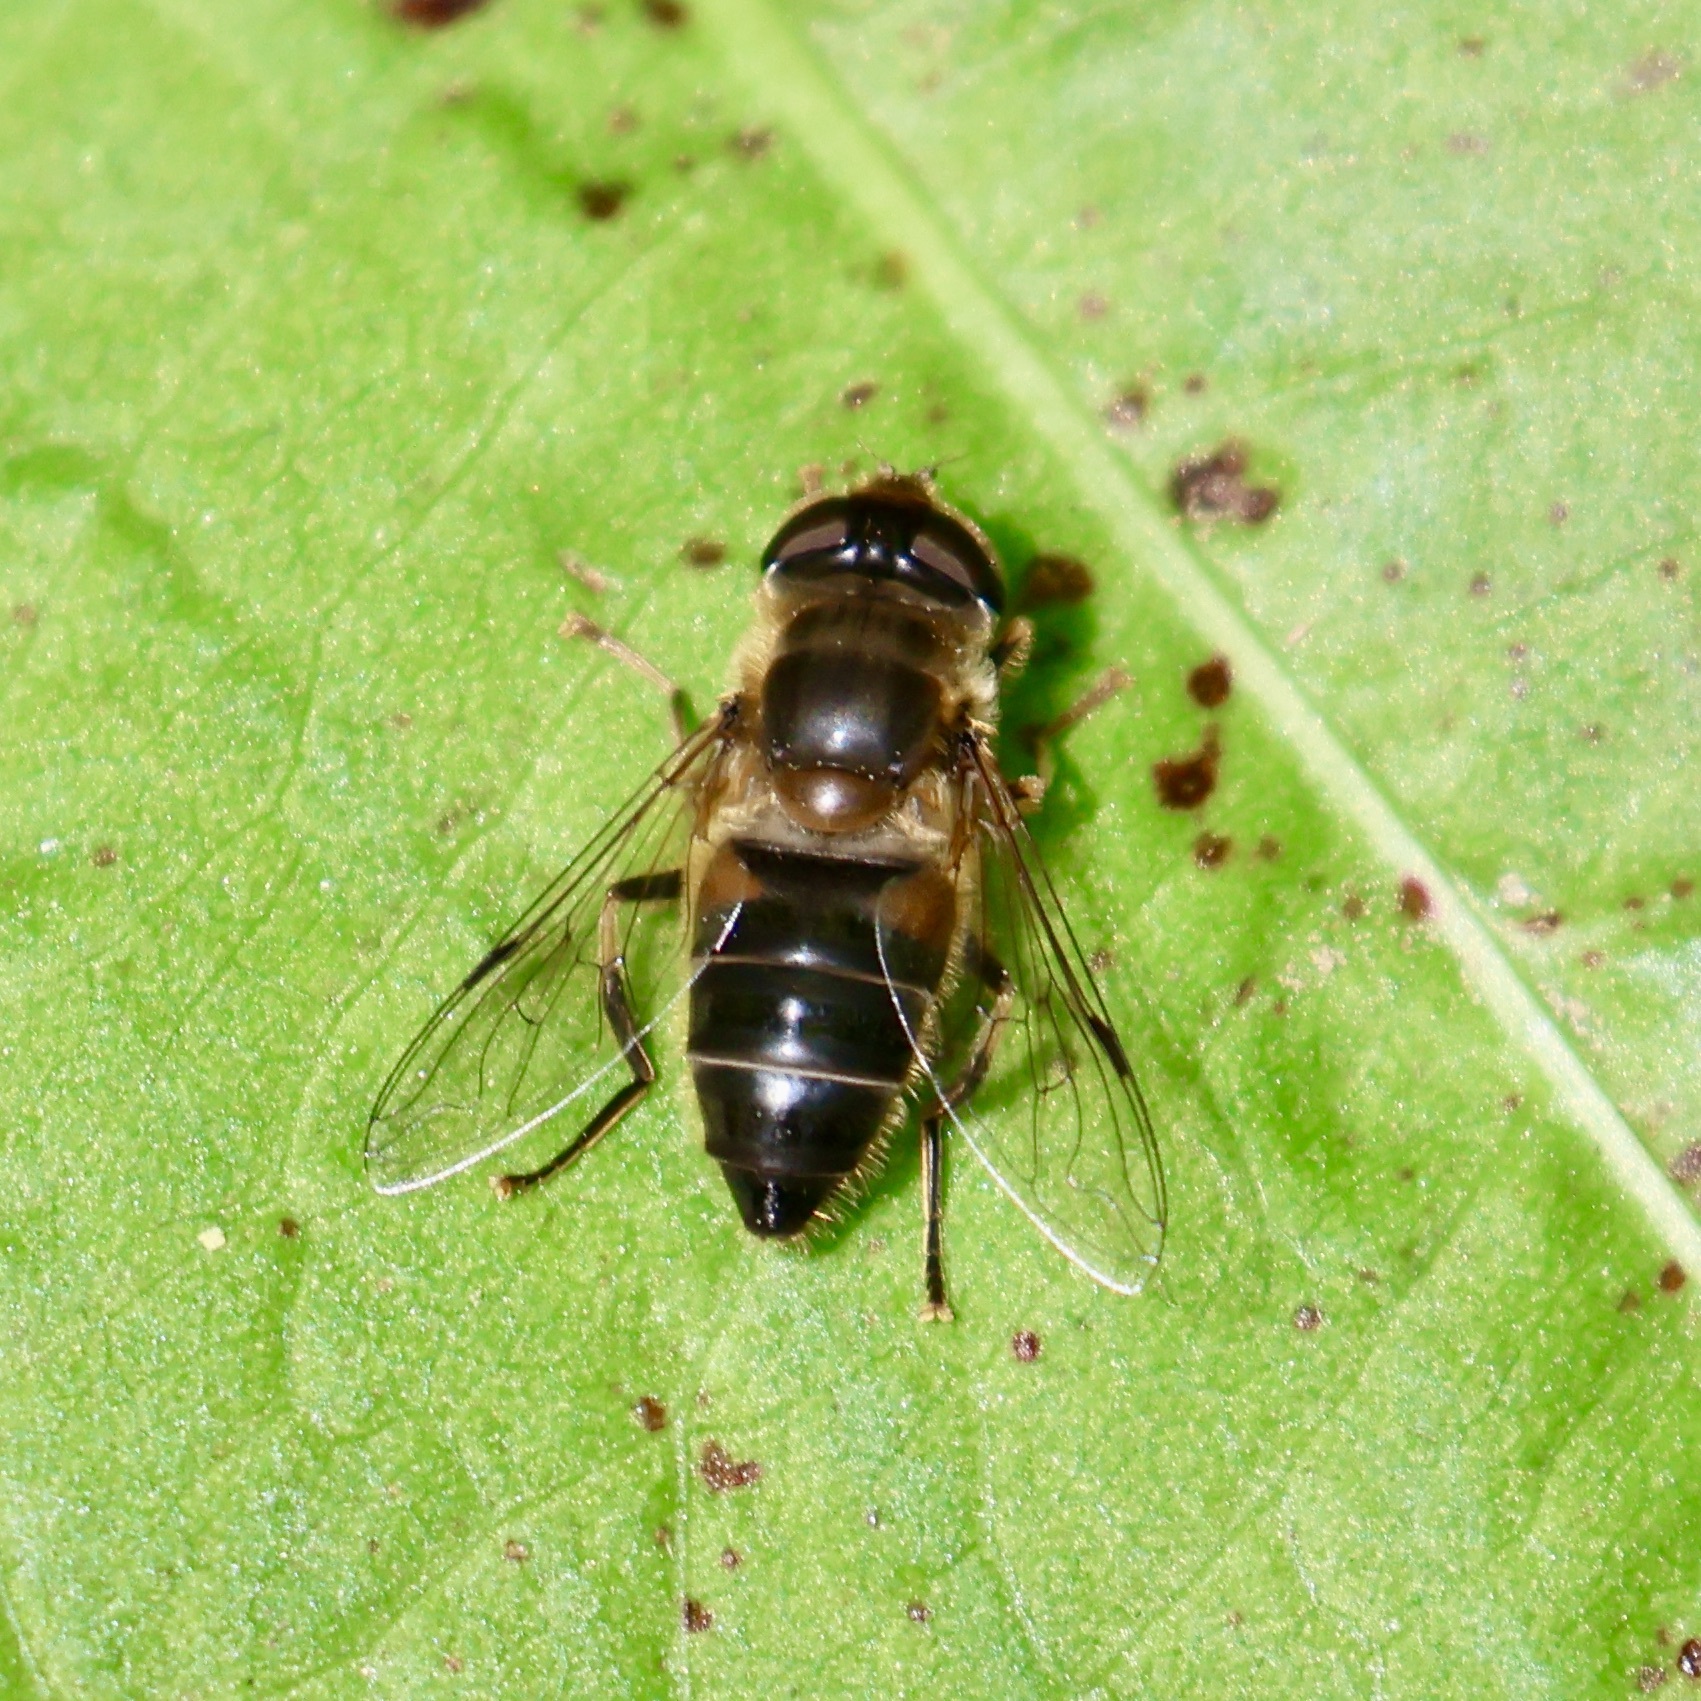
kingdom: Animalia
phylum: Arthropoda
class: Insecta
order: Diptera
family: Syrphidae
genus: Eristalis
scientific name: Eristalis pertinax
